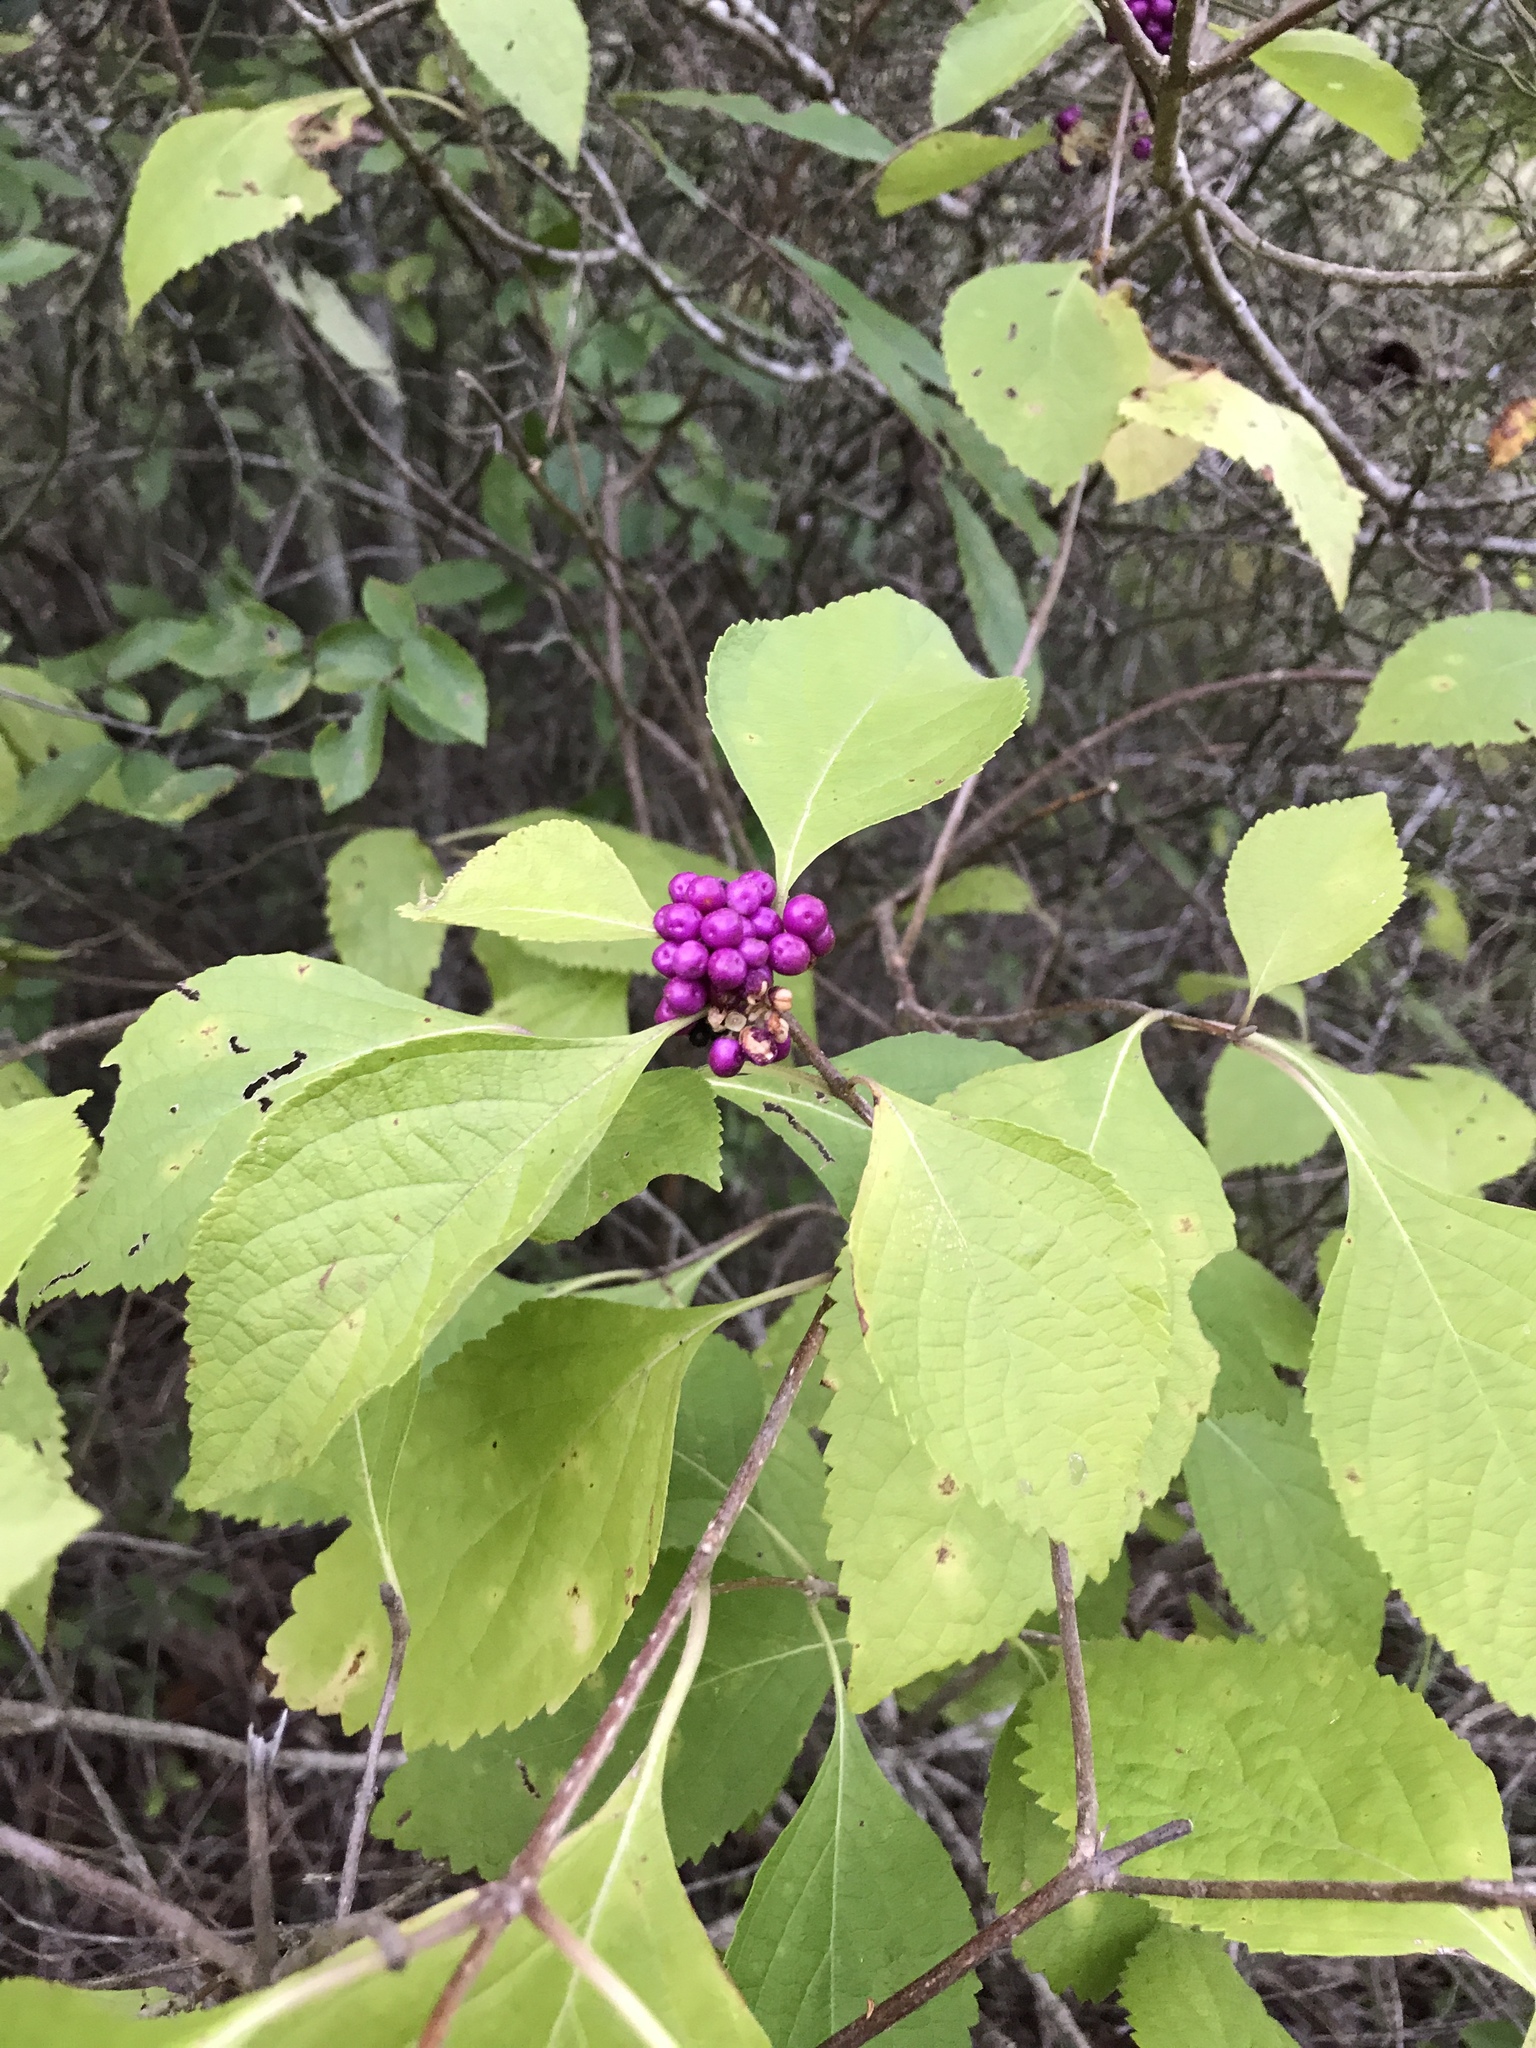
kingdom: Plantae
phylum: Tracheophyta
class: Magnoliopsida
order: Lamiales
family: Lamiaceae
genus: Callicarpa
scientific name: Callicarpa americana
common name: American beautyberry
